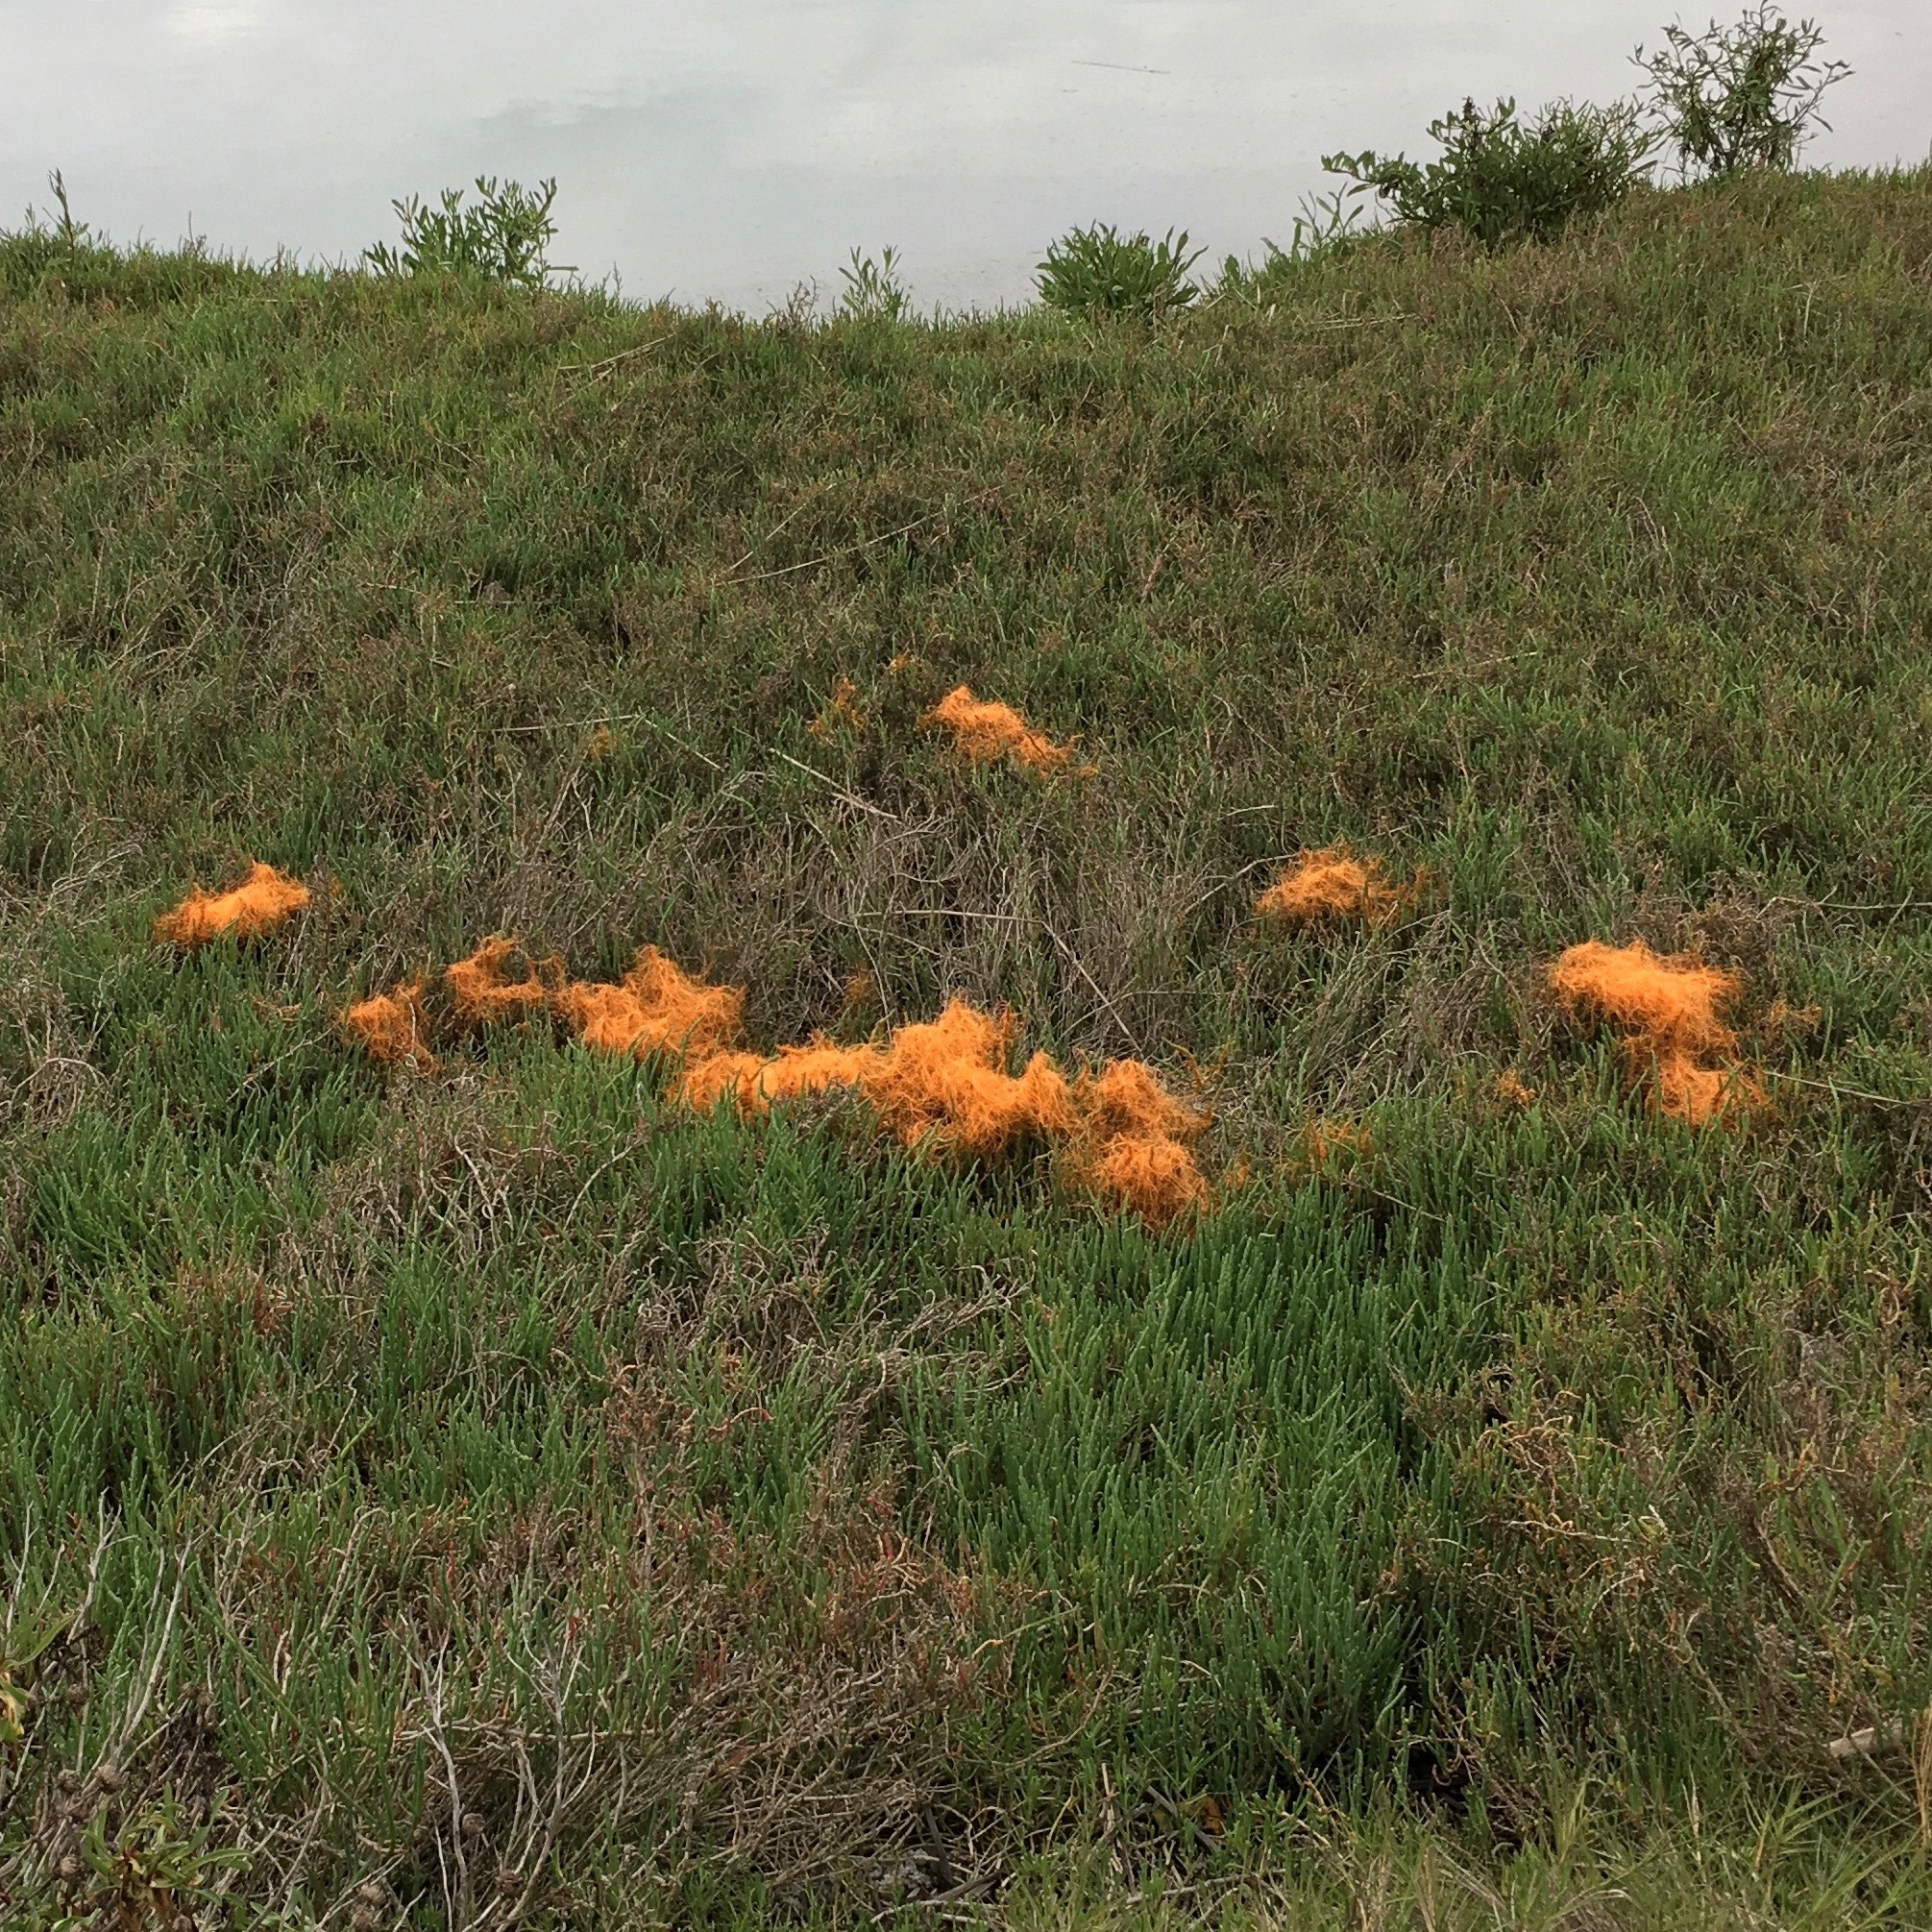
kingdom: Plantae
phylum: Tracheophyta
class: Magnoliopsida
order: Solanales
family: Convolvulaceae
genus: Cuscuta
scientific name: Cuscuta pacifica
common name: Large saltmarsh dodder
